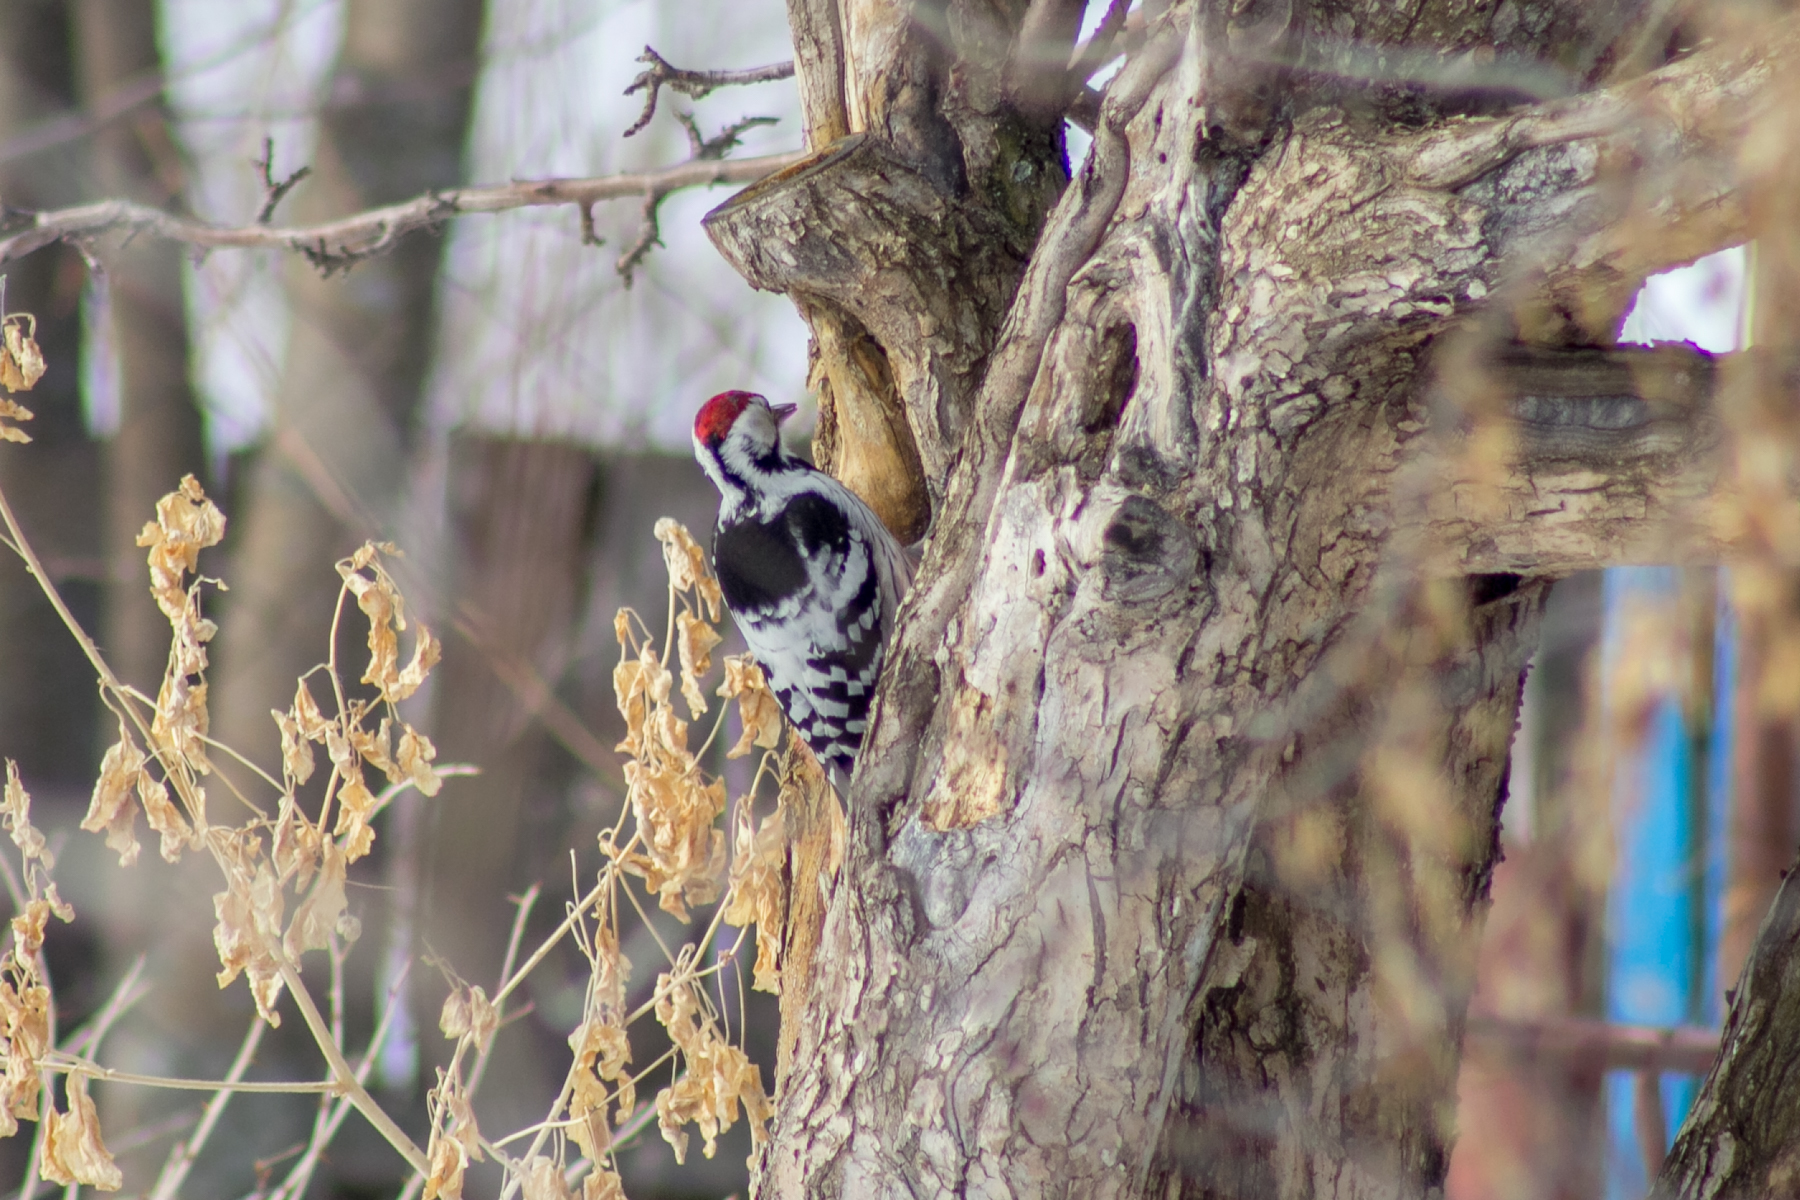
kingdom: Animalia
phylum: Chordata
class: Aves
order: Piciformes
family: Picidae
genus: Dendrocopos
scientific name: Dendrocopos leucotos
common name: White-backed woodpecker
